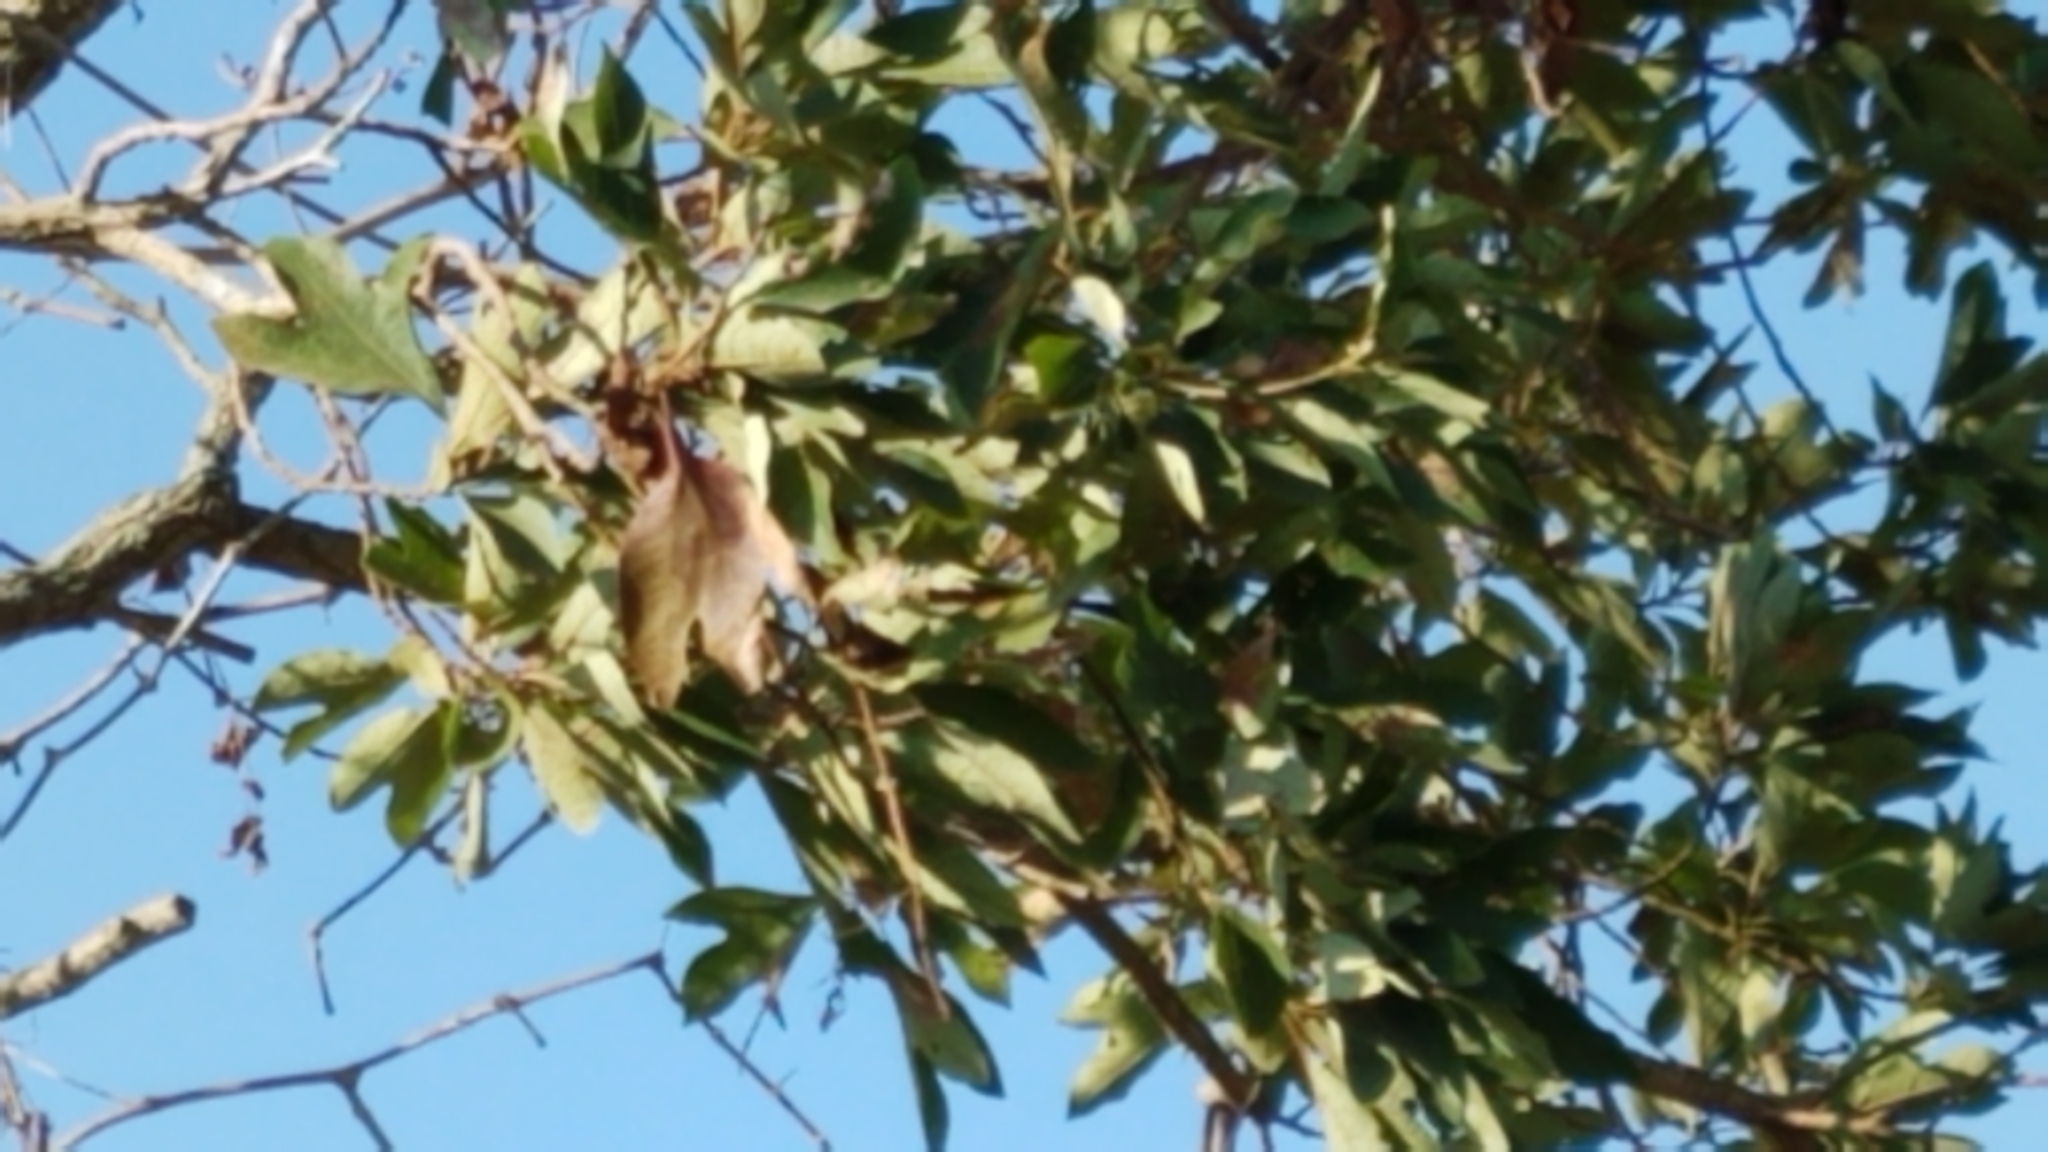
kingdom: Plantae
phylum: Tracheophyta
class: Magnoliopsida
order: Laurales
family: Lauraceae
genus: Sassafras
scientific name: Sassafras albidum
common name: Sassafras
